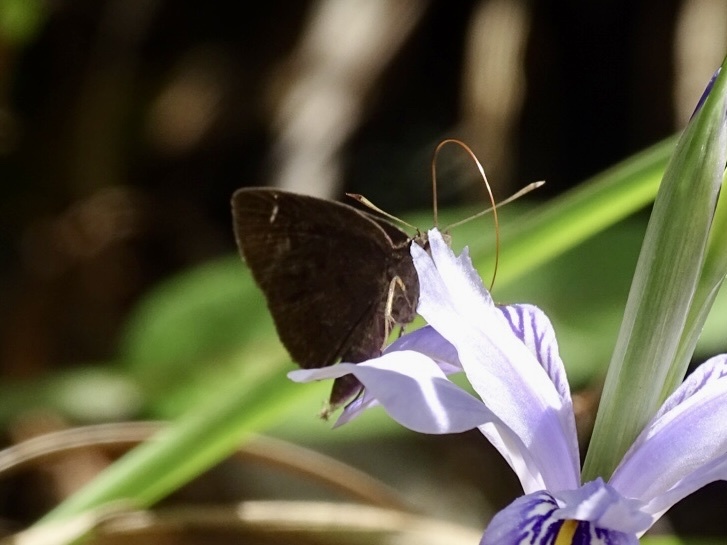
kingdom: Animalia
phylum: Arthropoda
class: Insecta
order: Lepidoptera
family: Hesperiidae
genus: Astictopterus
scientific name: Astictopterus jama
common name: Forest hopper
